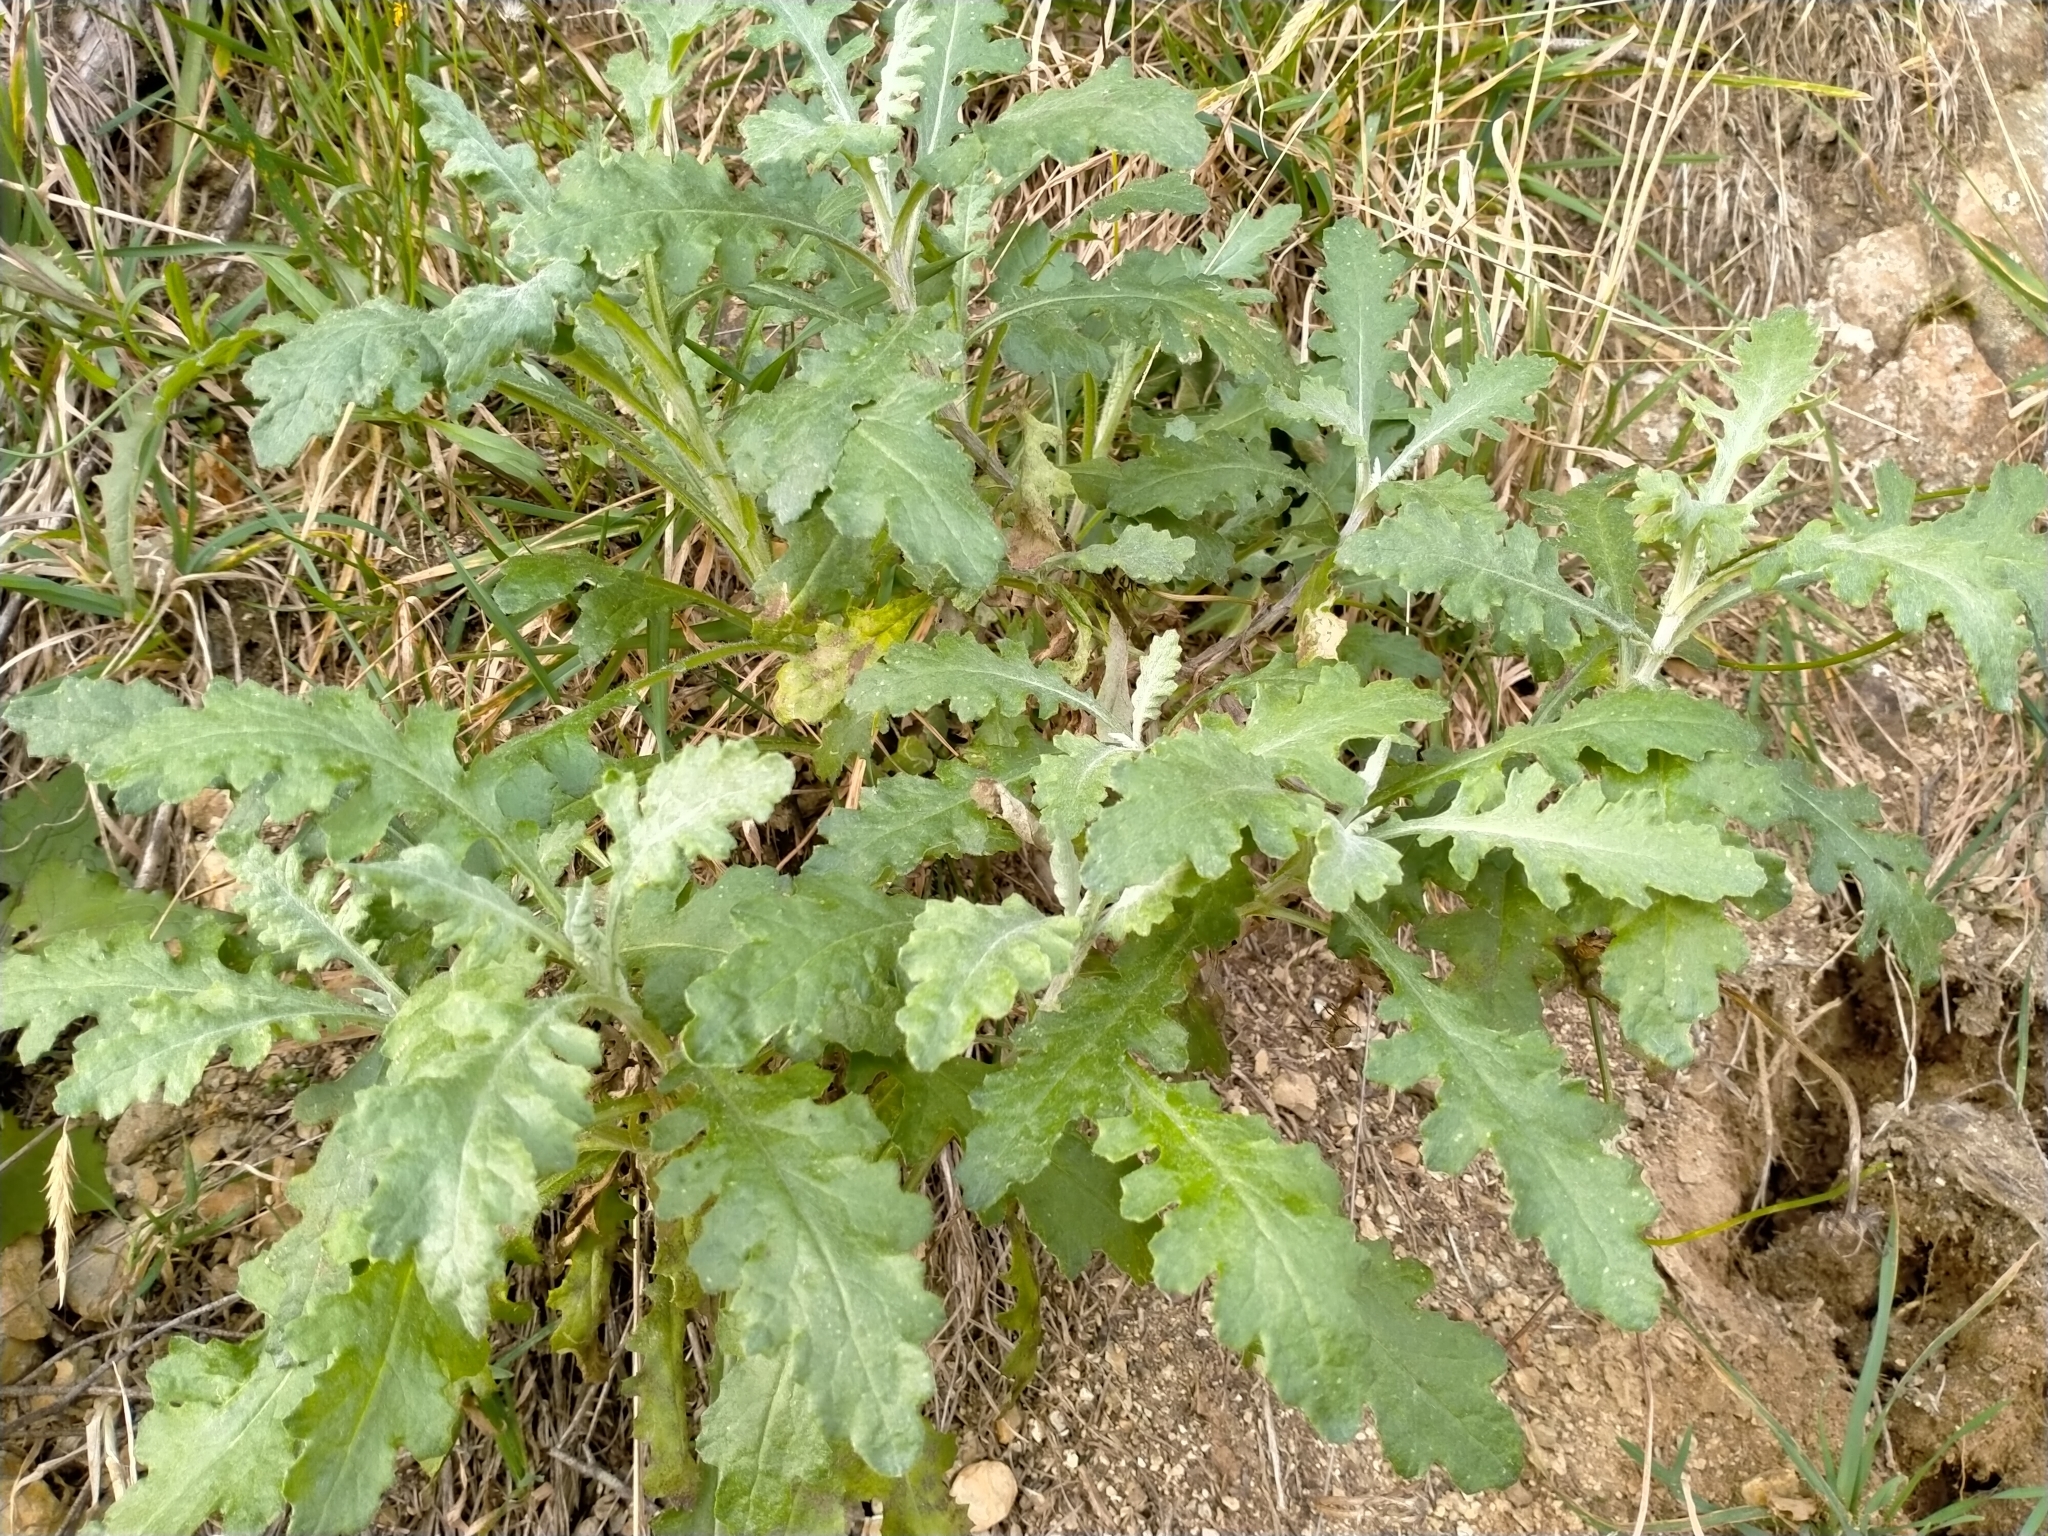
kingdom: Plantae
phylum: Tracheophyta
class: Magnoliopsida
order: Asterales
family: Asteraceae
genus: Senecio
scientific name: Senecio glomeratus
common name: Cutleaf burnweed
